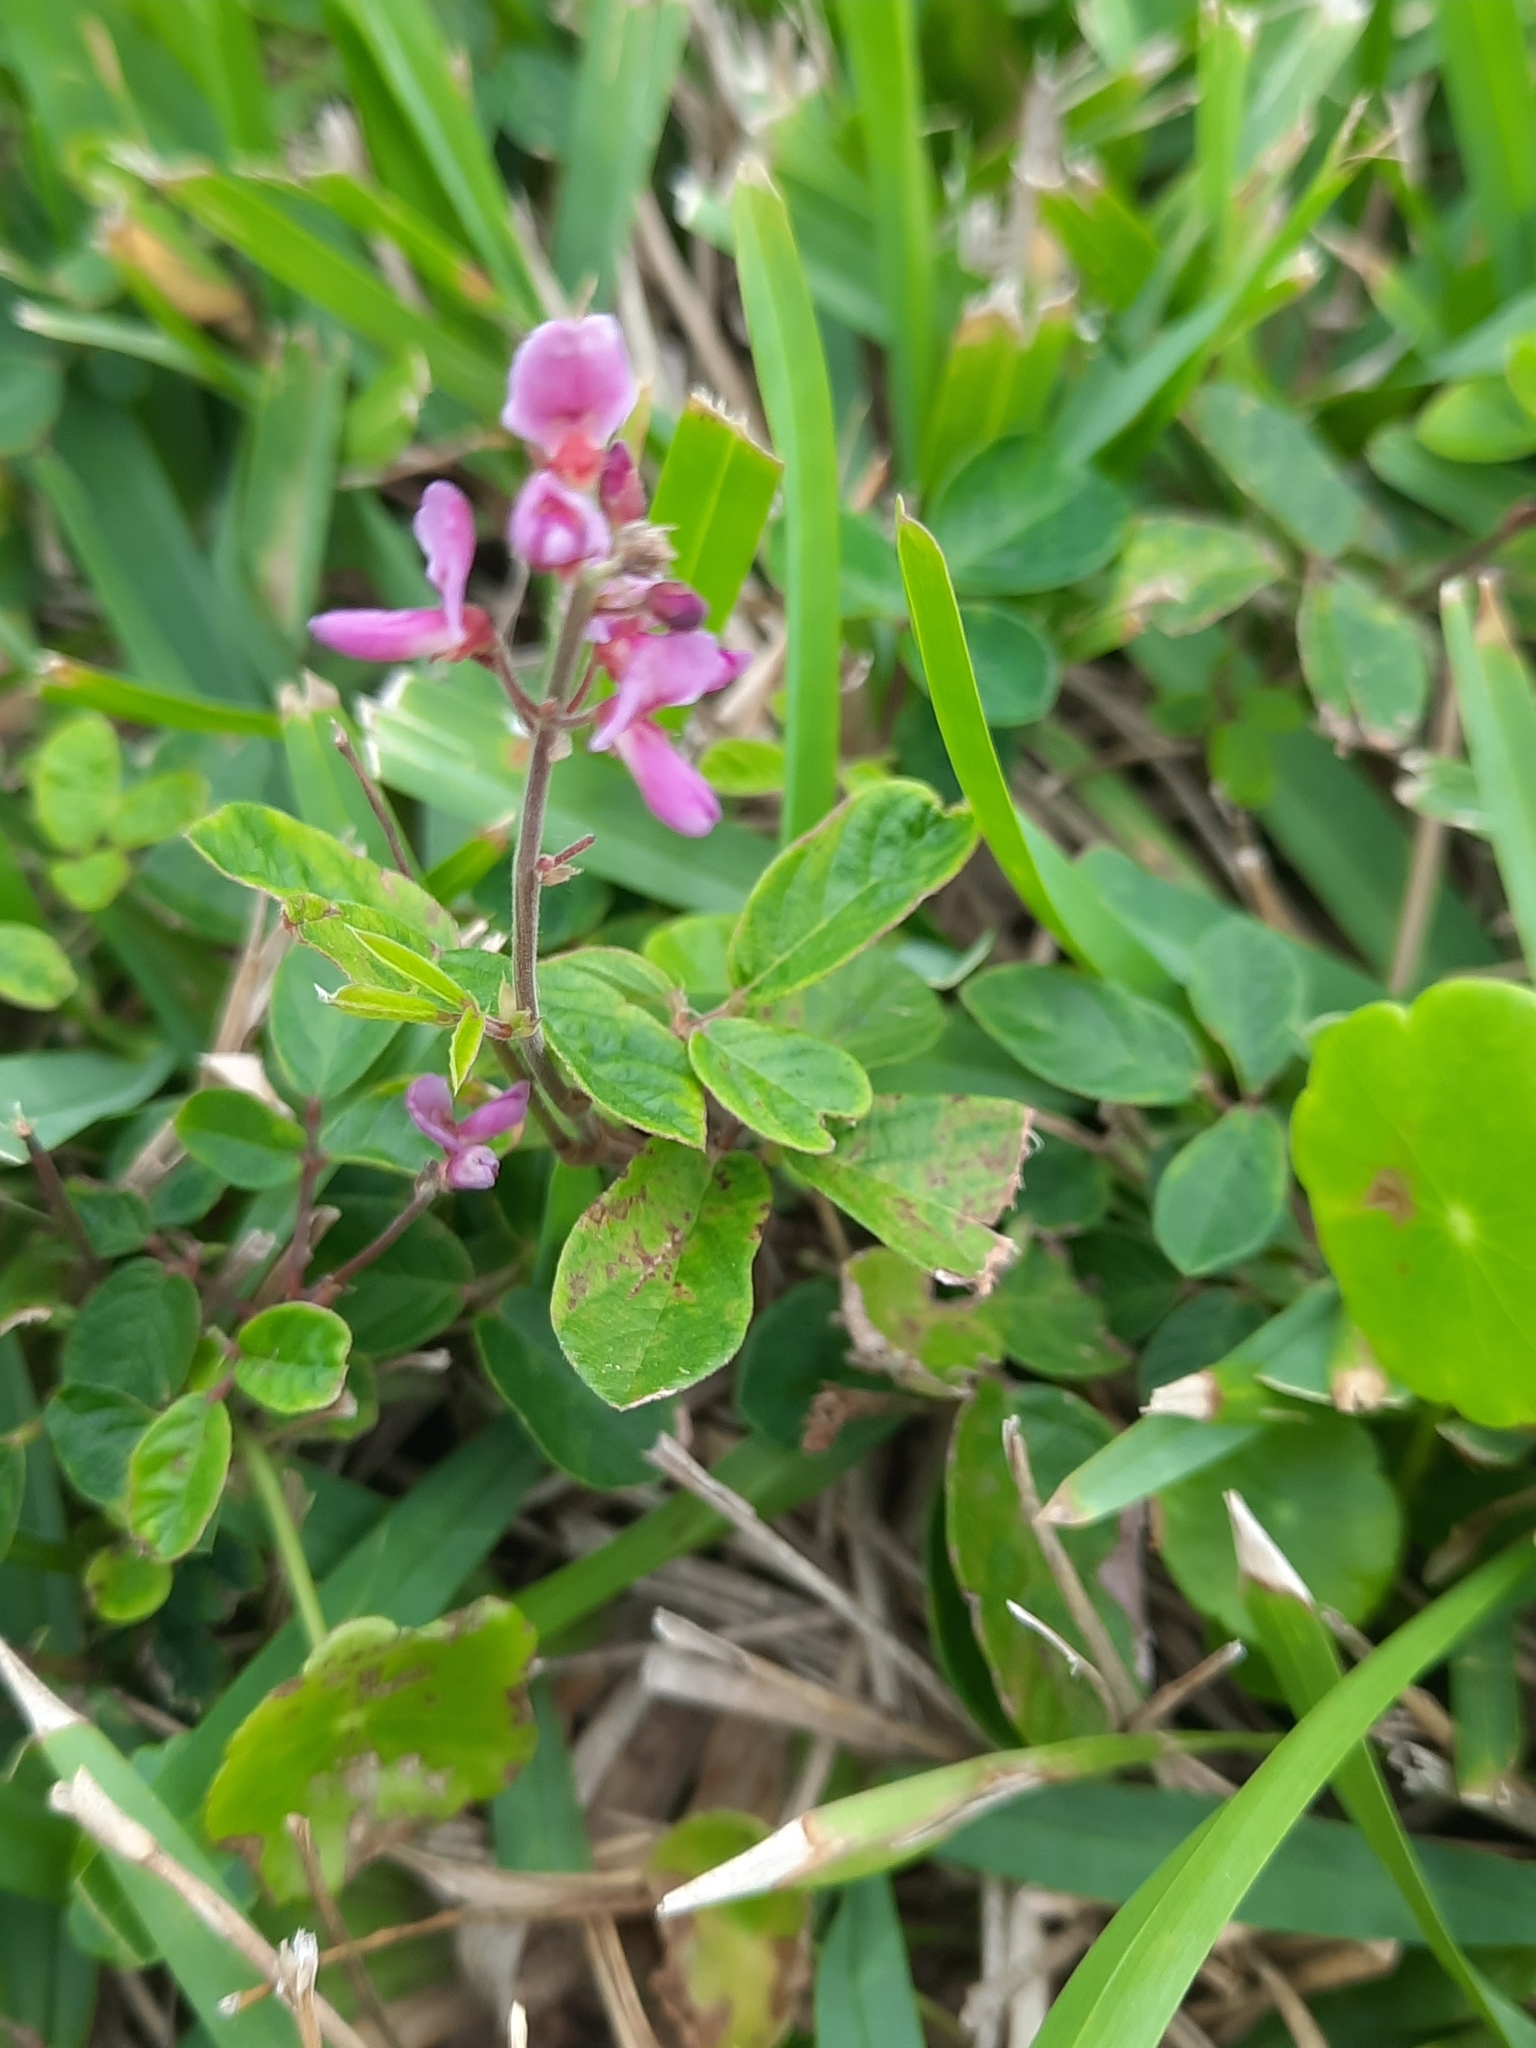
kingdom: Plantae
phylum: Tracheophyta
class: Magnoliopsida
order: Fabales
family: Fabaceae
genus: Desmodium
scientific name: Desmodium incanum
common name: Tickclover
